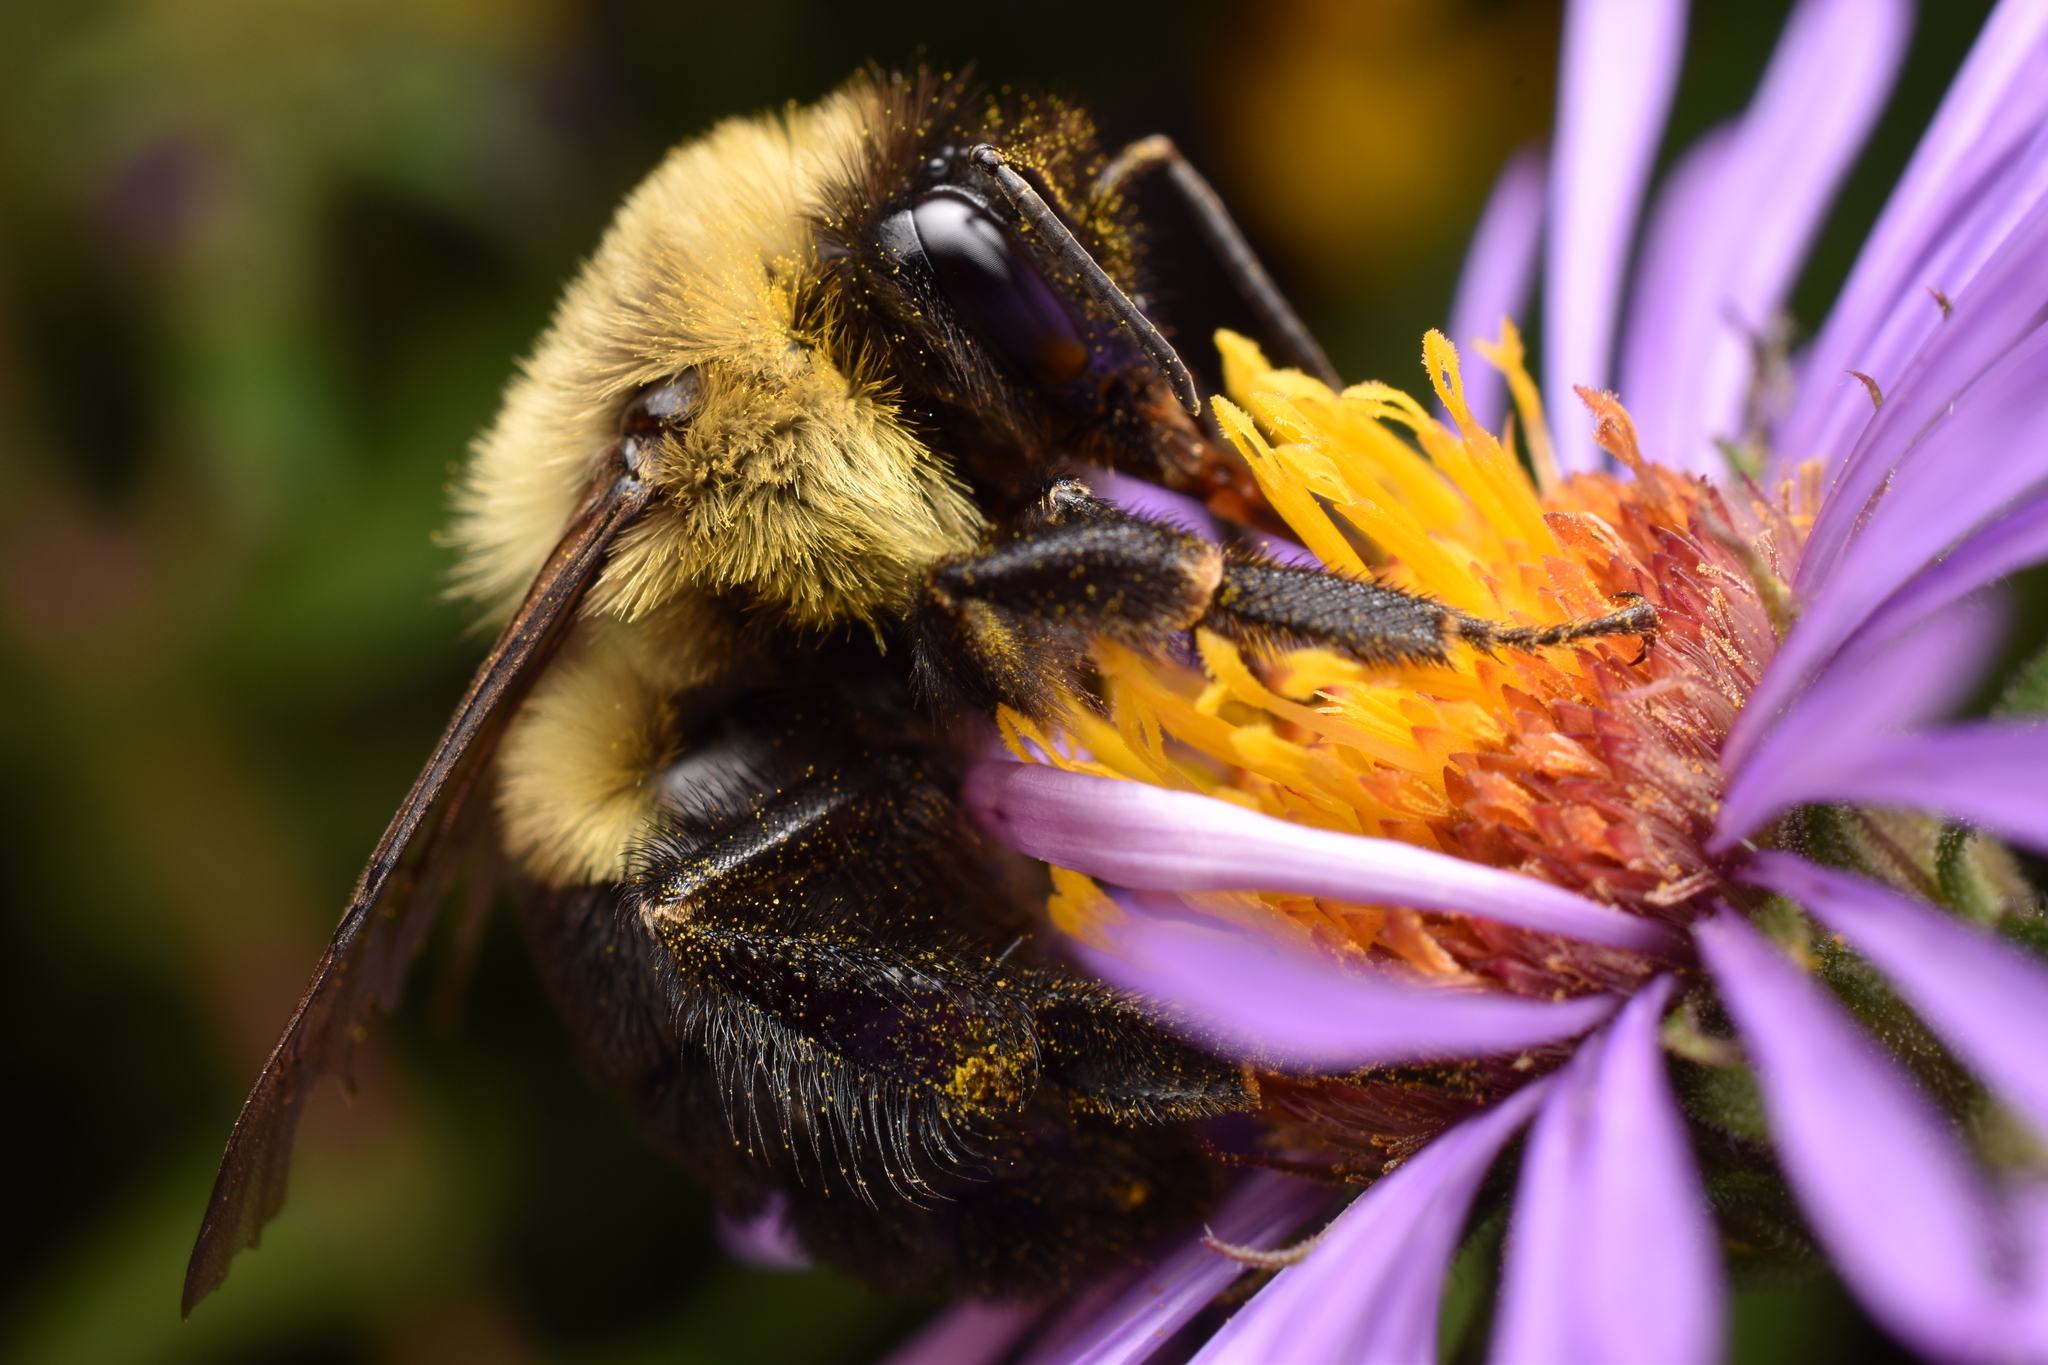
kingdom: Animalia
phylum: Arthropoda
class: Insecta
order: Hymenoptera
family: Apidae
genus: Bombus
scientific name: Bombus impatiens
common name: Common eastern bumble bee
